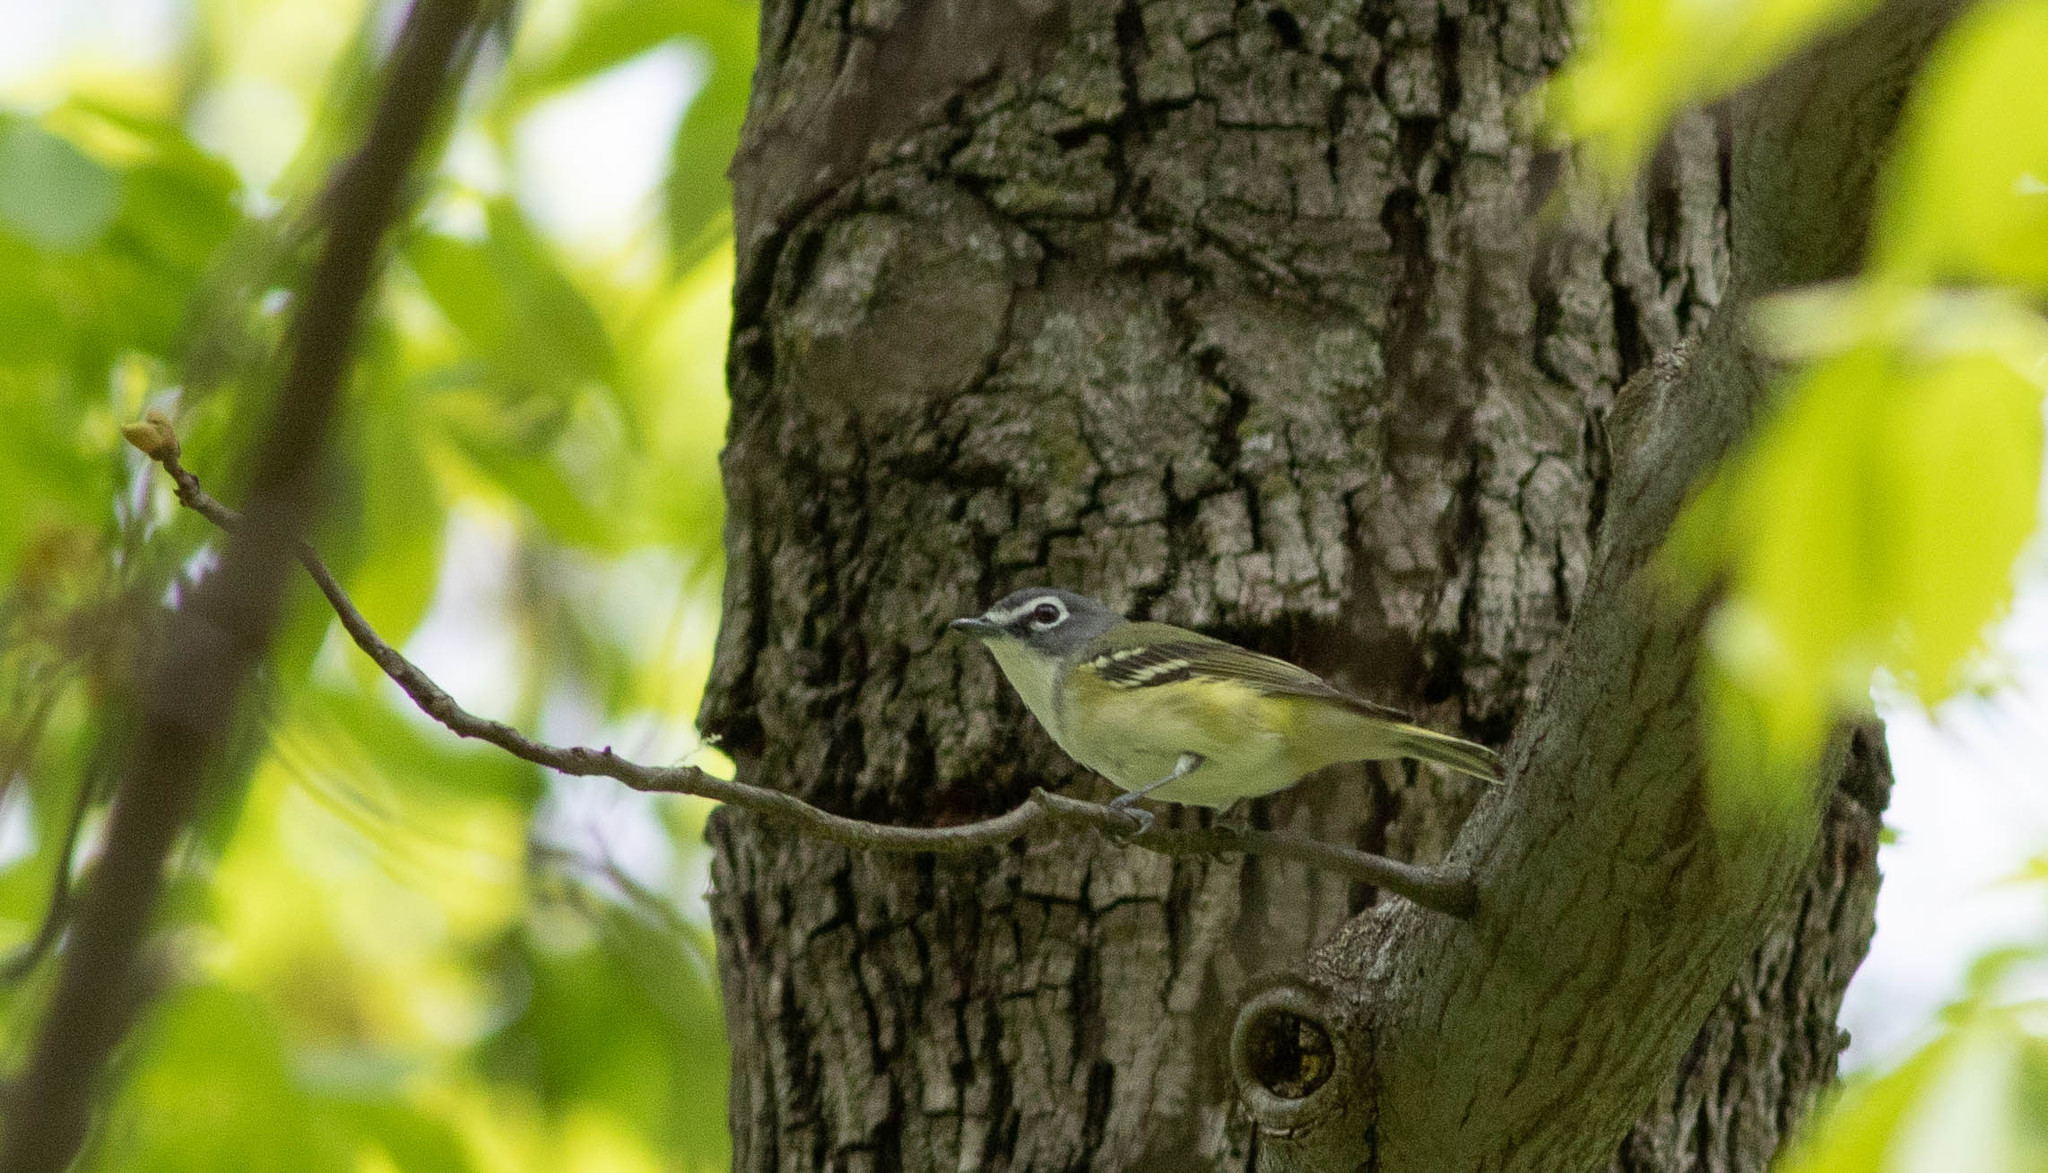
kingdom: Animalia
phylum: Chordata
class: Aves
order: Passeriformes
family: Vireonidae
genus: Vireo
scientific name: Vireo solitarius
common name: Blue-headed vireo
